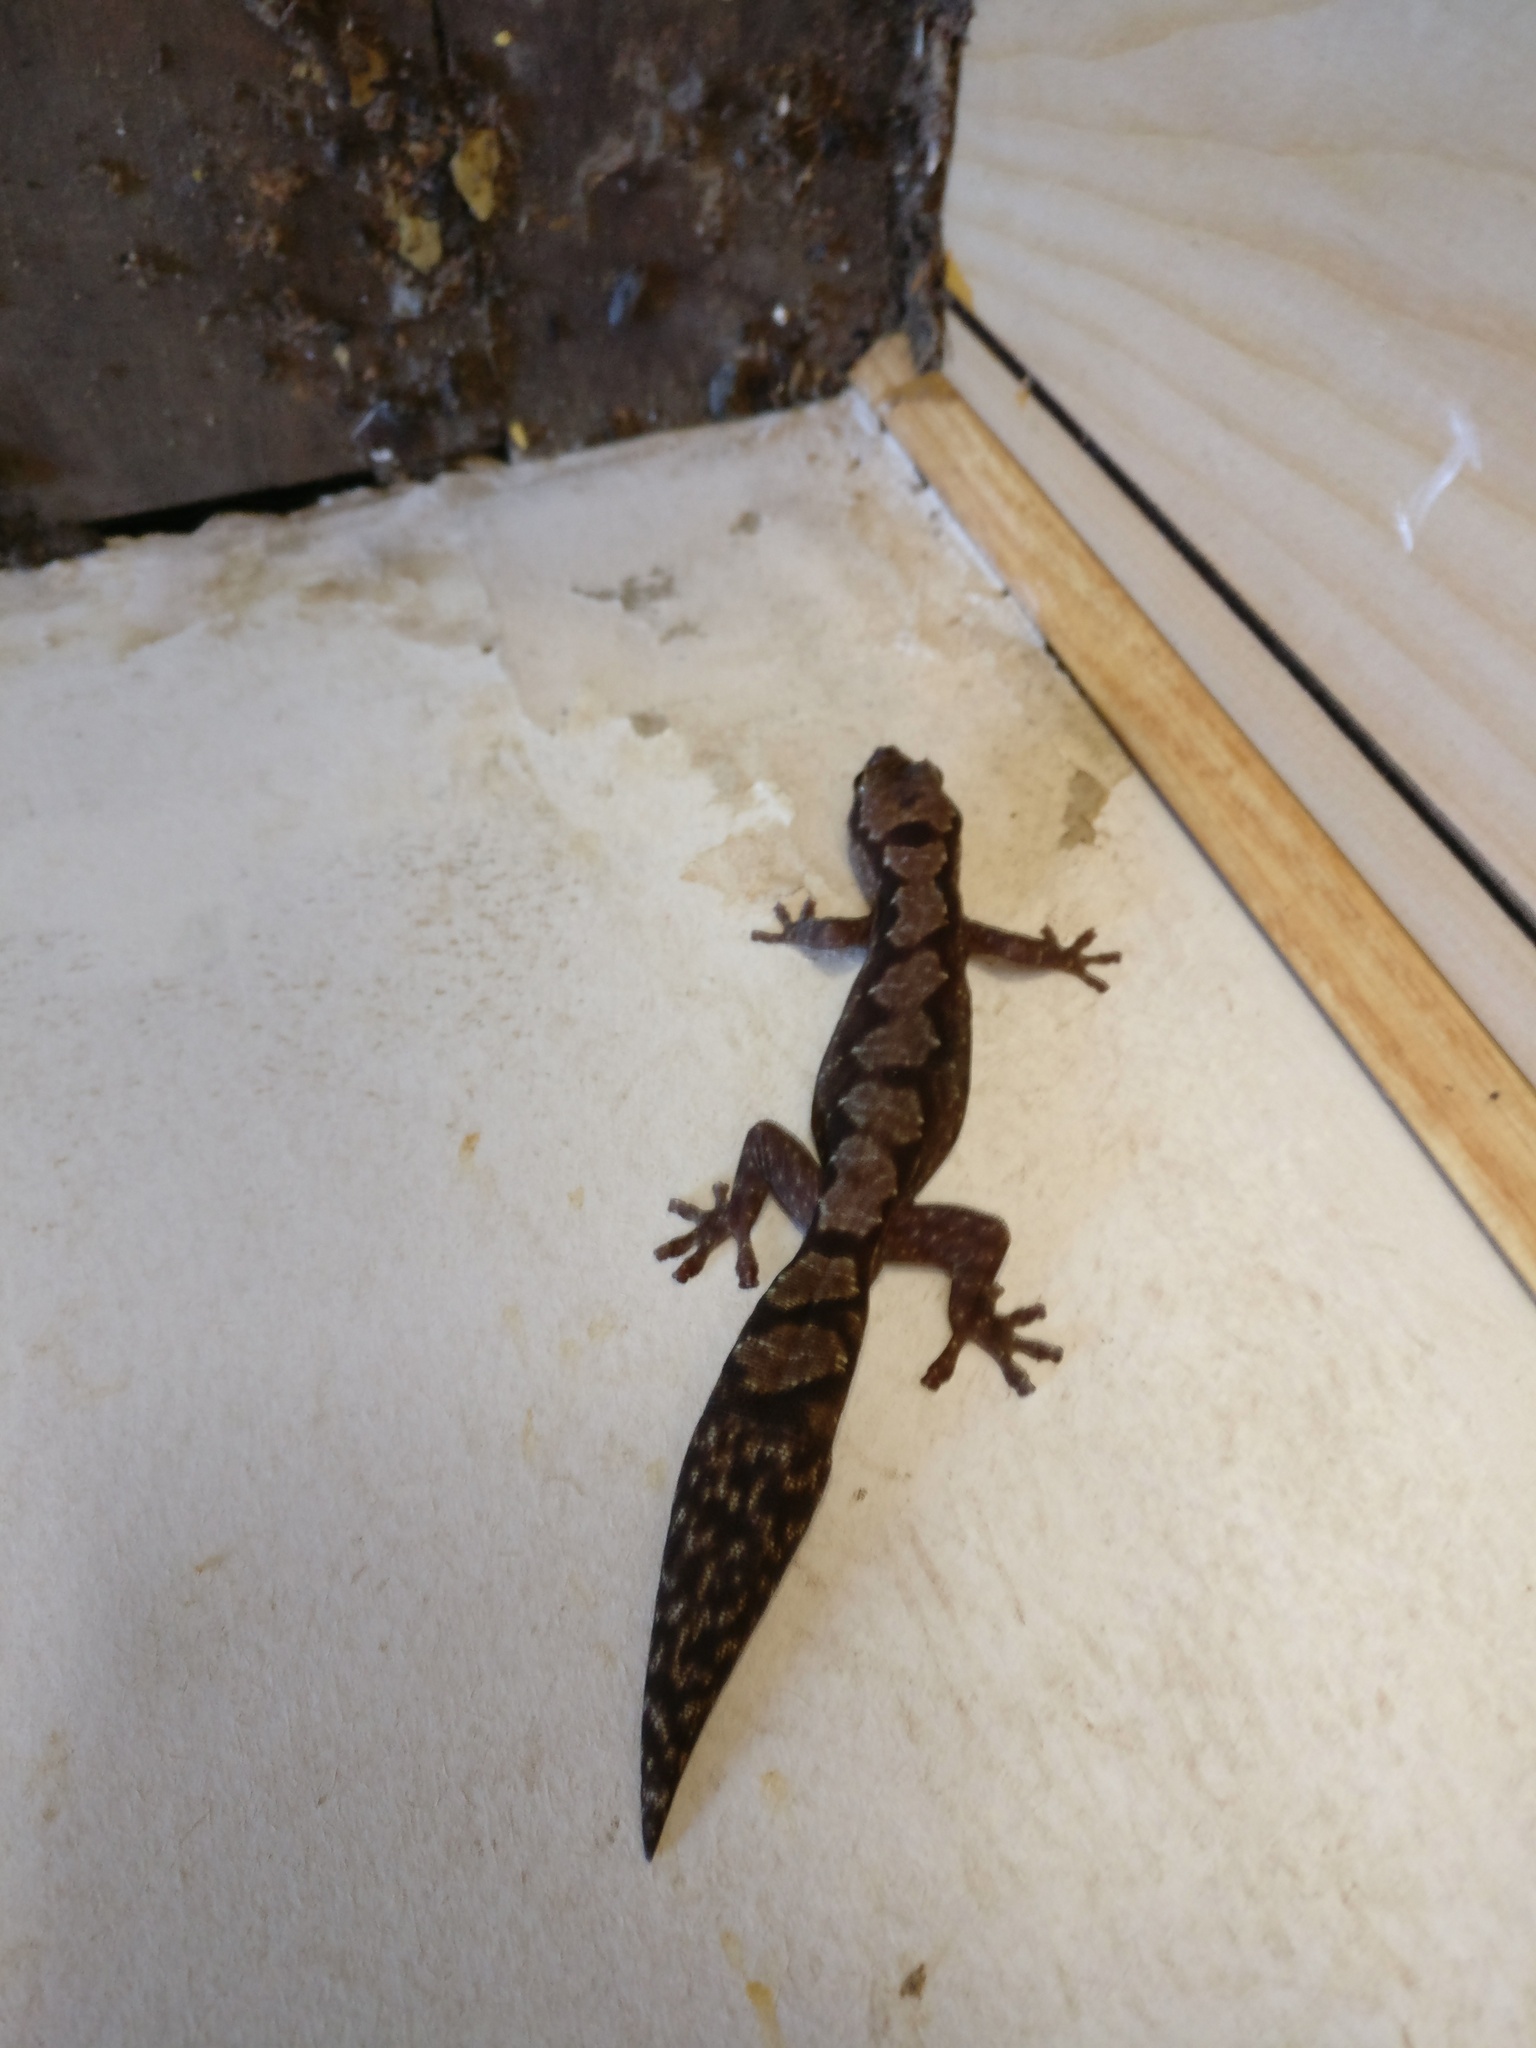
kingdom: Animalia
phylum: Chordata
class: Squamata
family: Diplodactylidae
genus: Nebulifera
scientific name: Nebulifera robusta
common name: Robust gecko
